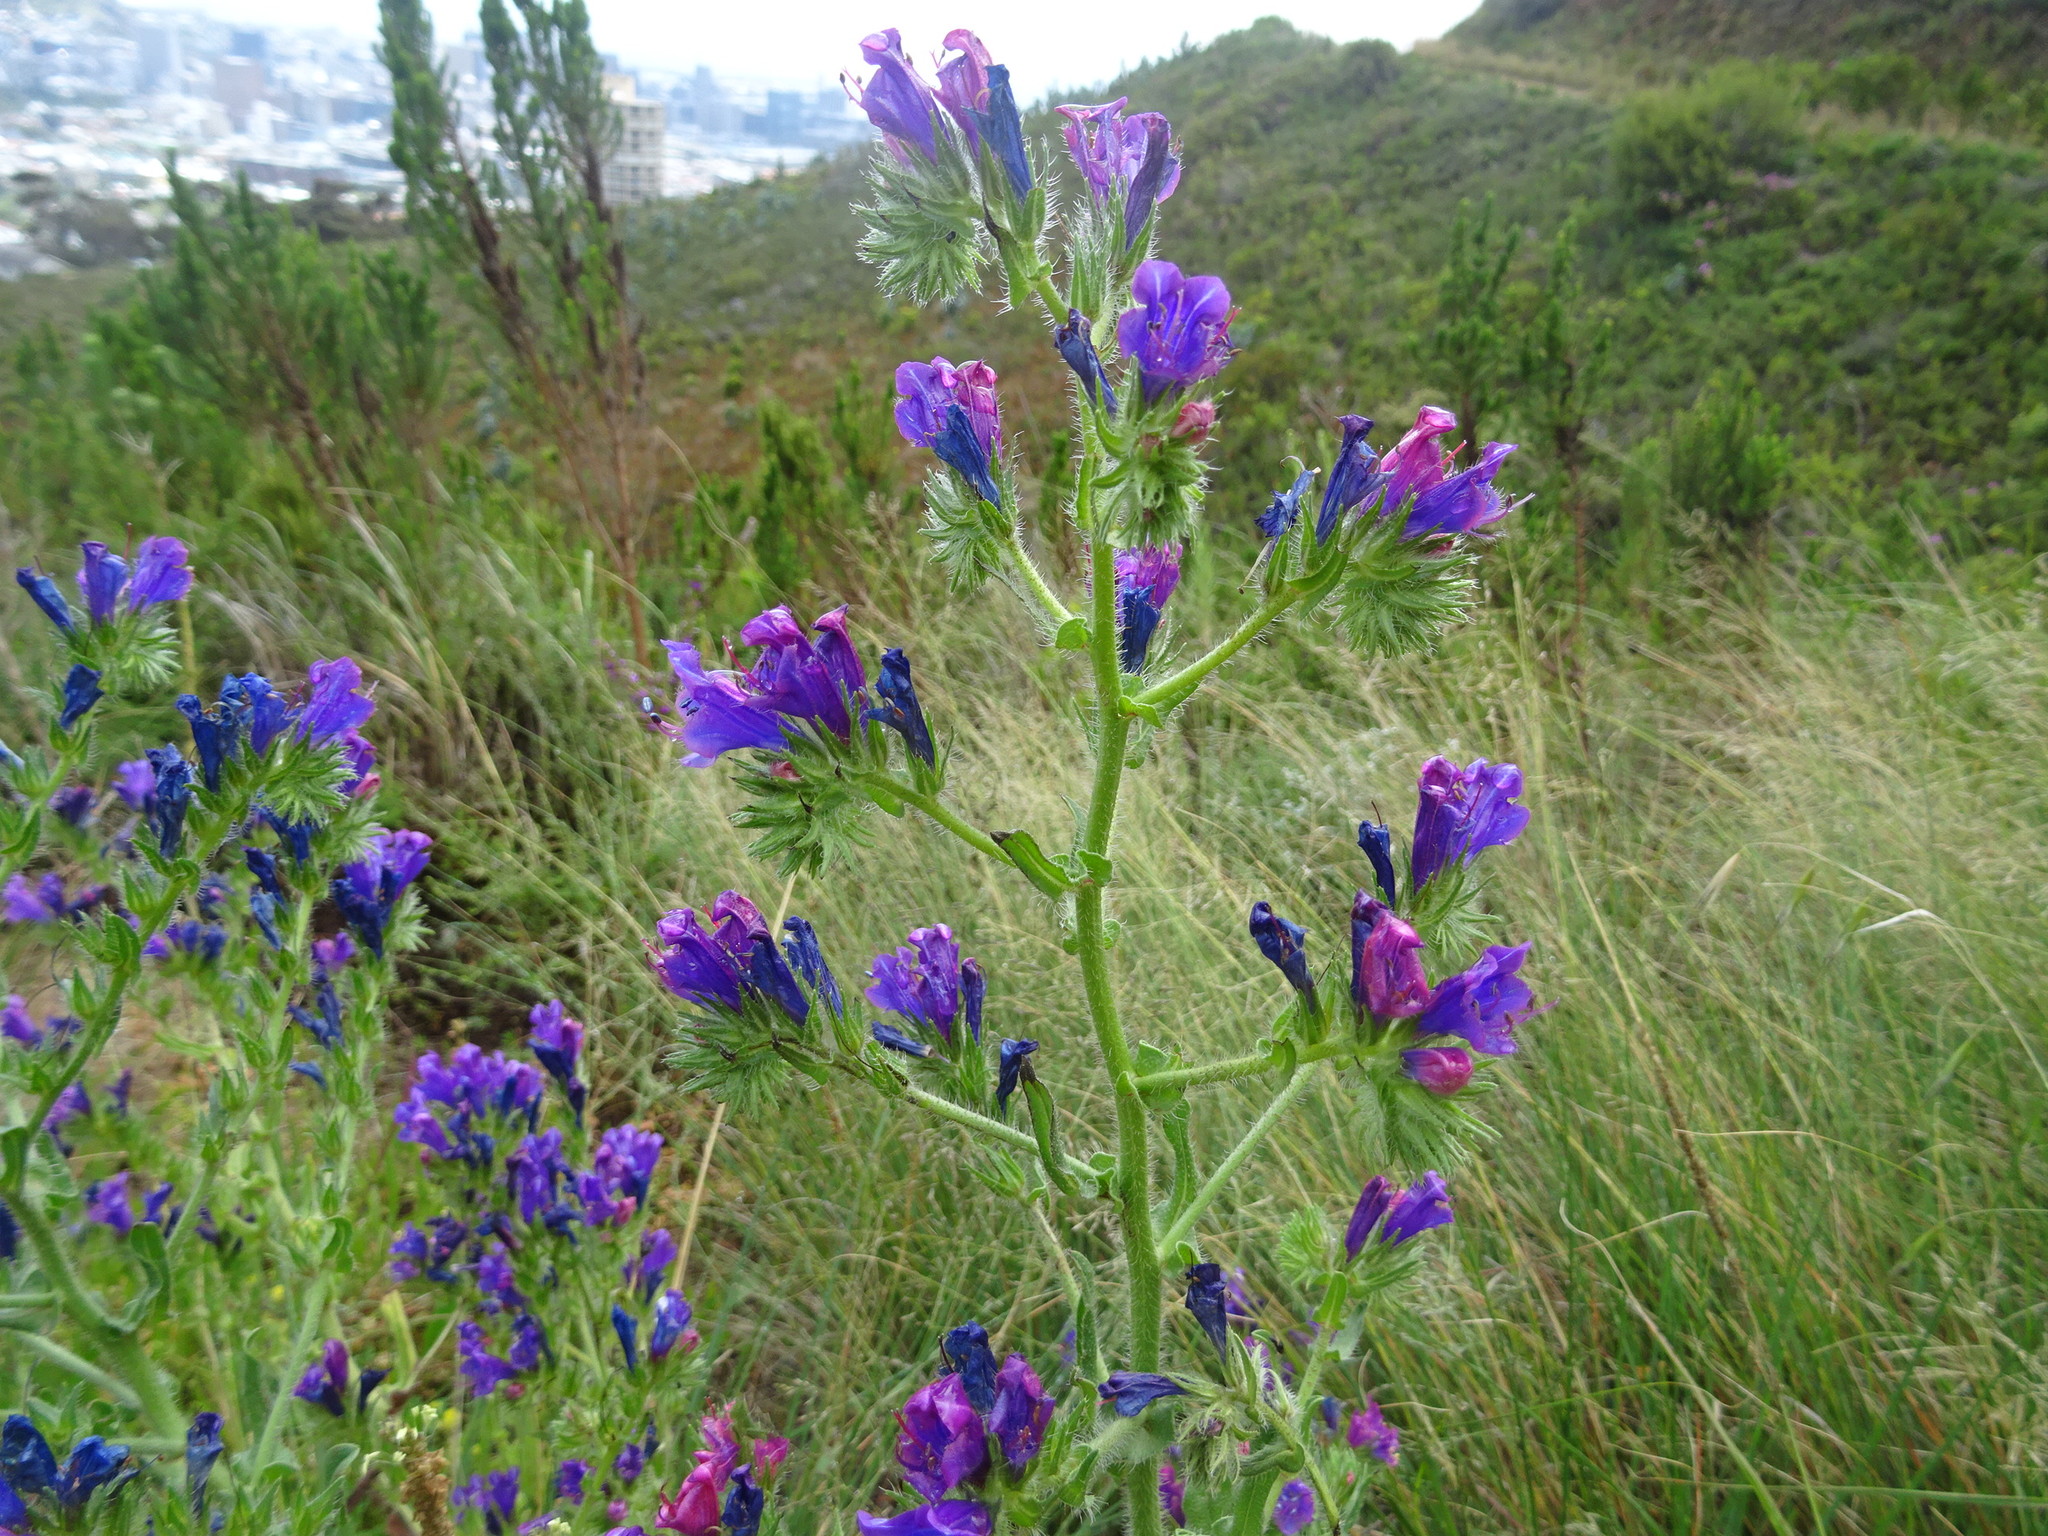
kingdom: Plantae
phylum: Tracheophyta
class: Magnoliopsida
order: Boraginales
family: Boraginaceae
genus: Echium
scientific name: Echium plantagineum
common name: Purple viper's-bugloss
